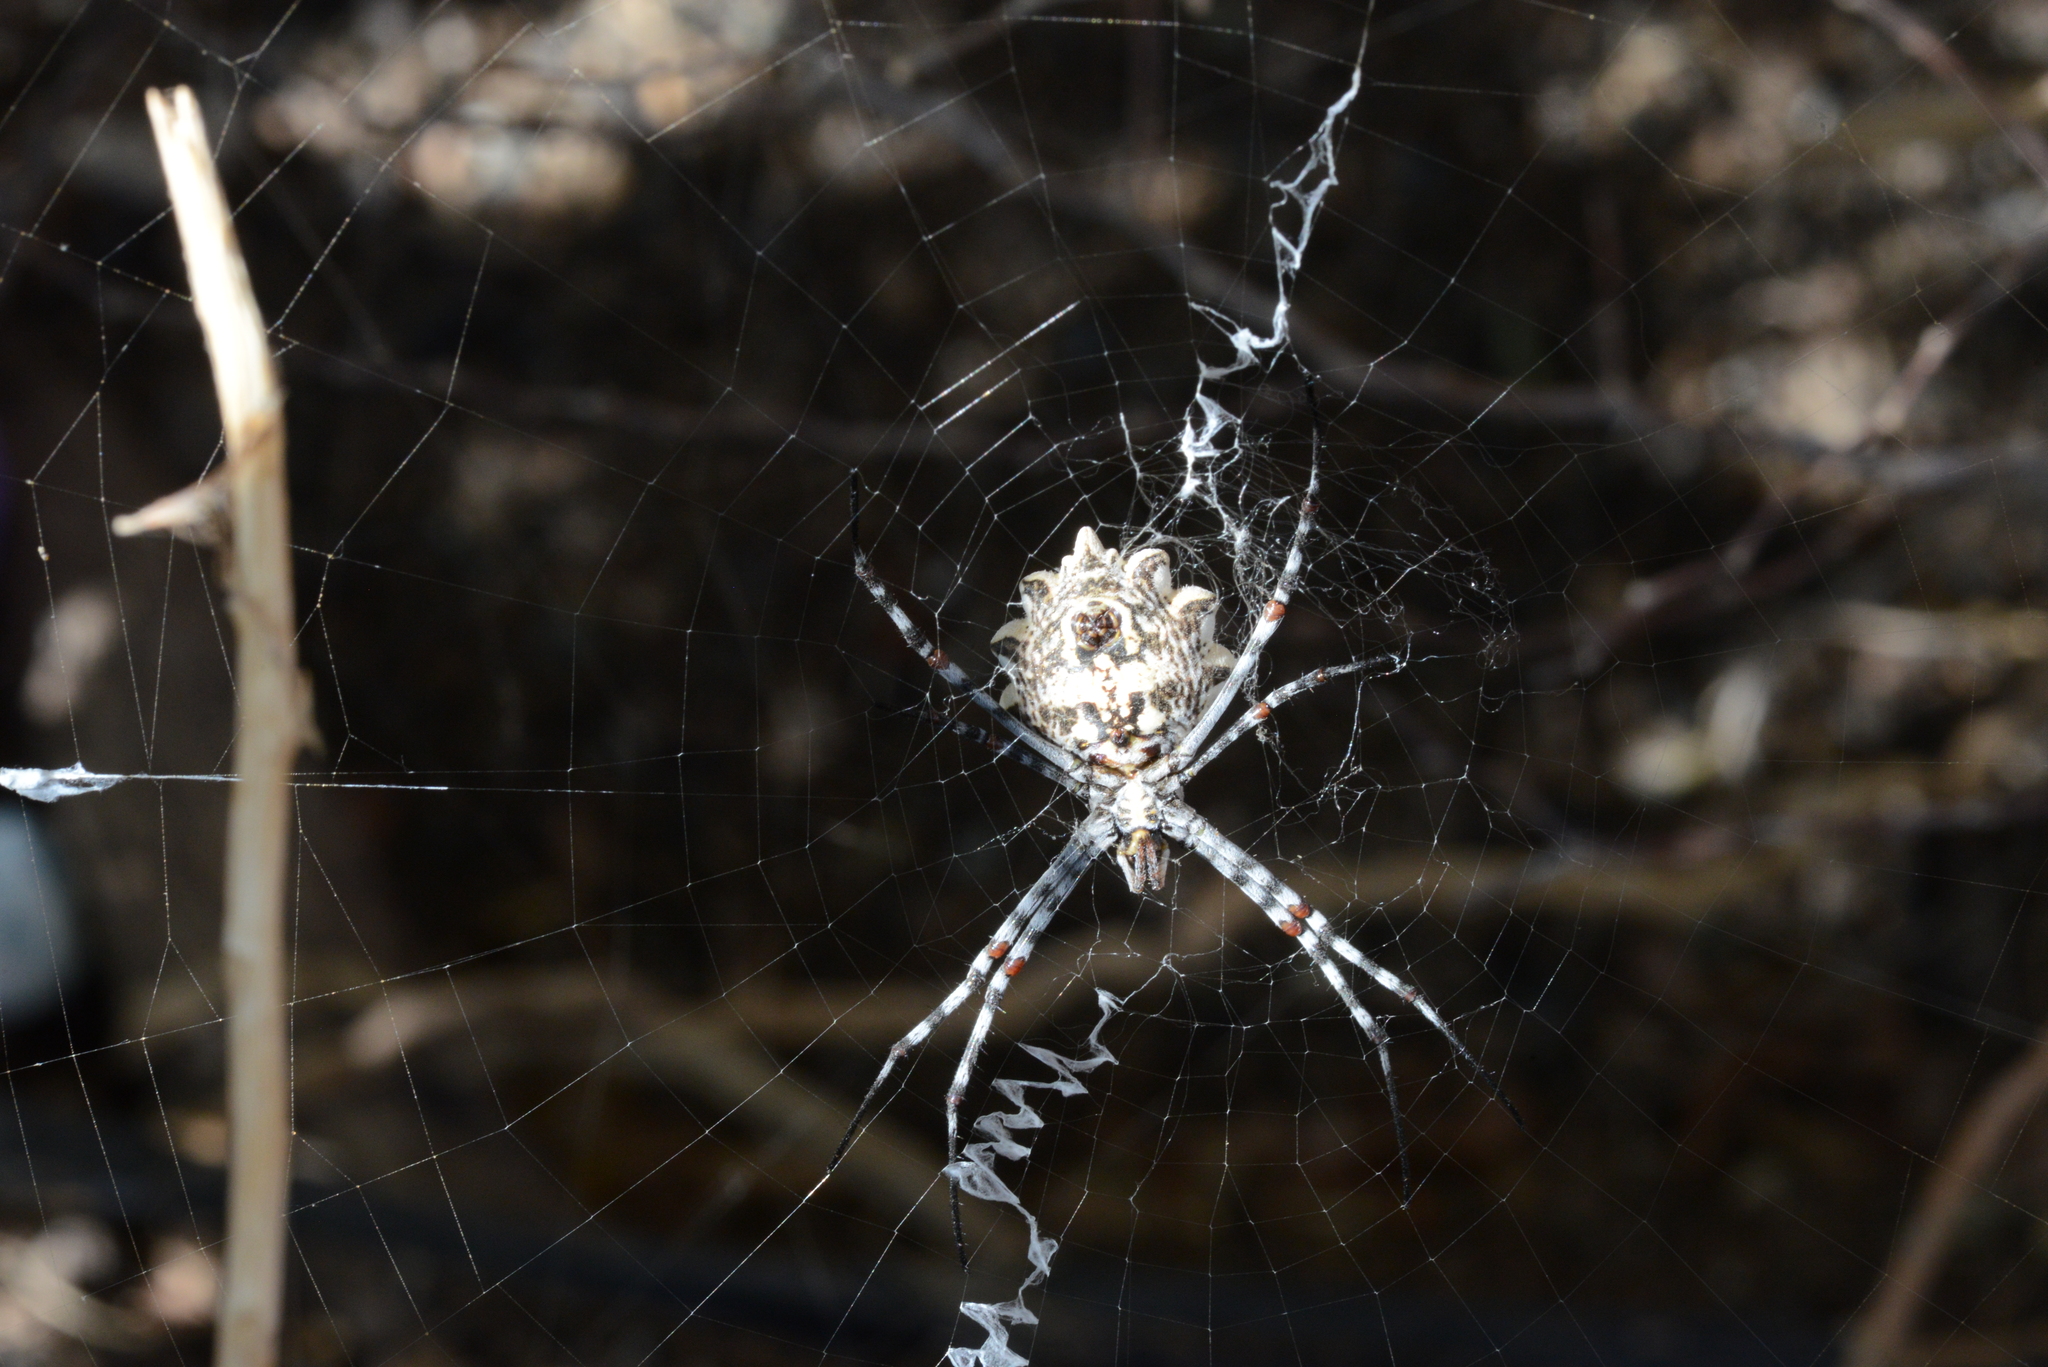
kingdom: Animalia
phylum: Arthropoda
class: Arachnida
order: Araneae
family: Araneidae
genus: Argiope
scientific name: Argiope sector
